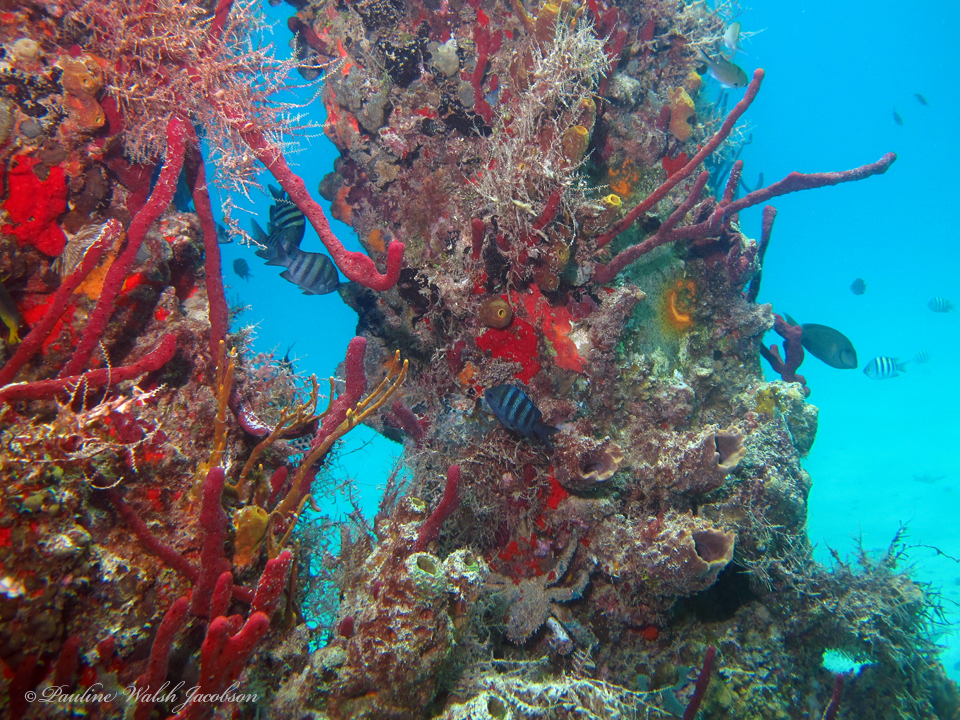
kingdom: Animalia
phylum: Chordata
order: Perciformes
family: Pomacentridae
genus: Abudefduf
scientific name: Abudefduf saxatilis
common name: Sergeant major
